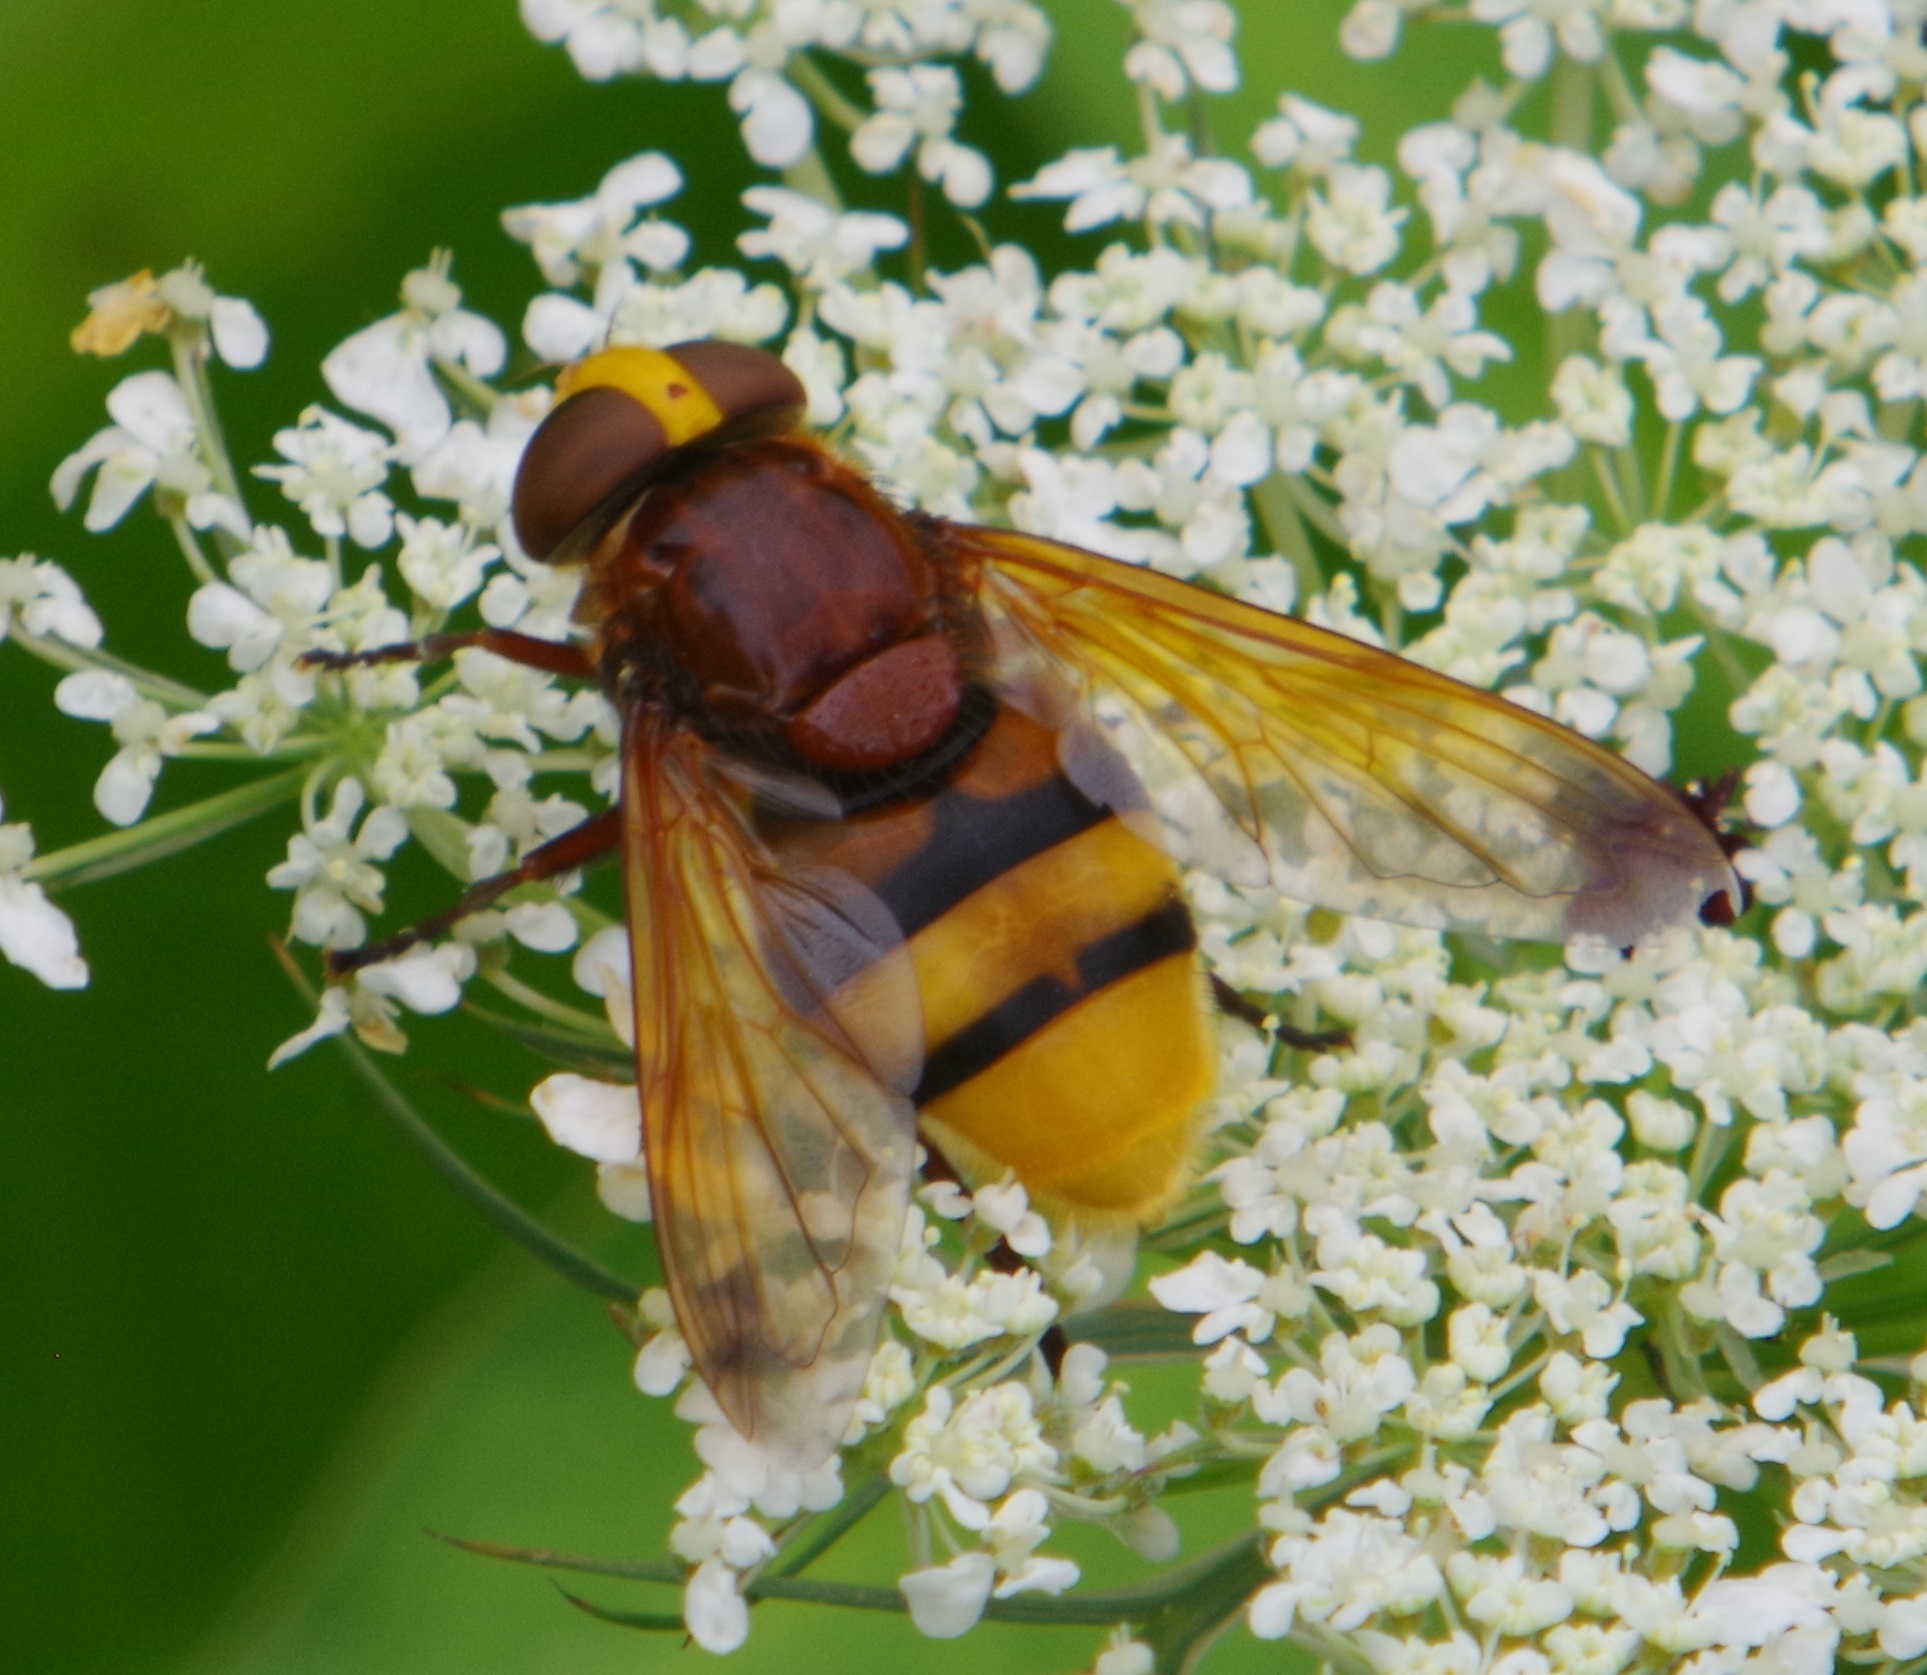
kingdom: Animalia
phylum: Arthropoda
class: Insecta
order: Diptera
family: Syrphidae
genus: Volucella
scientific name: Volucella zonaria
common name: Hornet hoverfly
